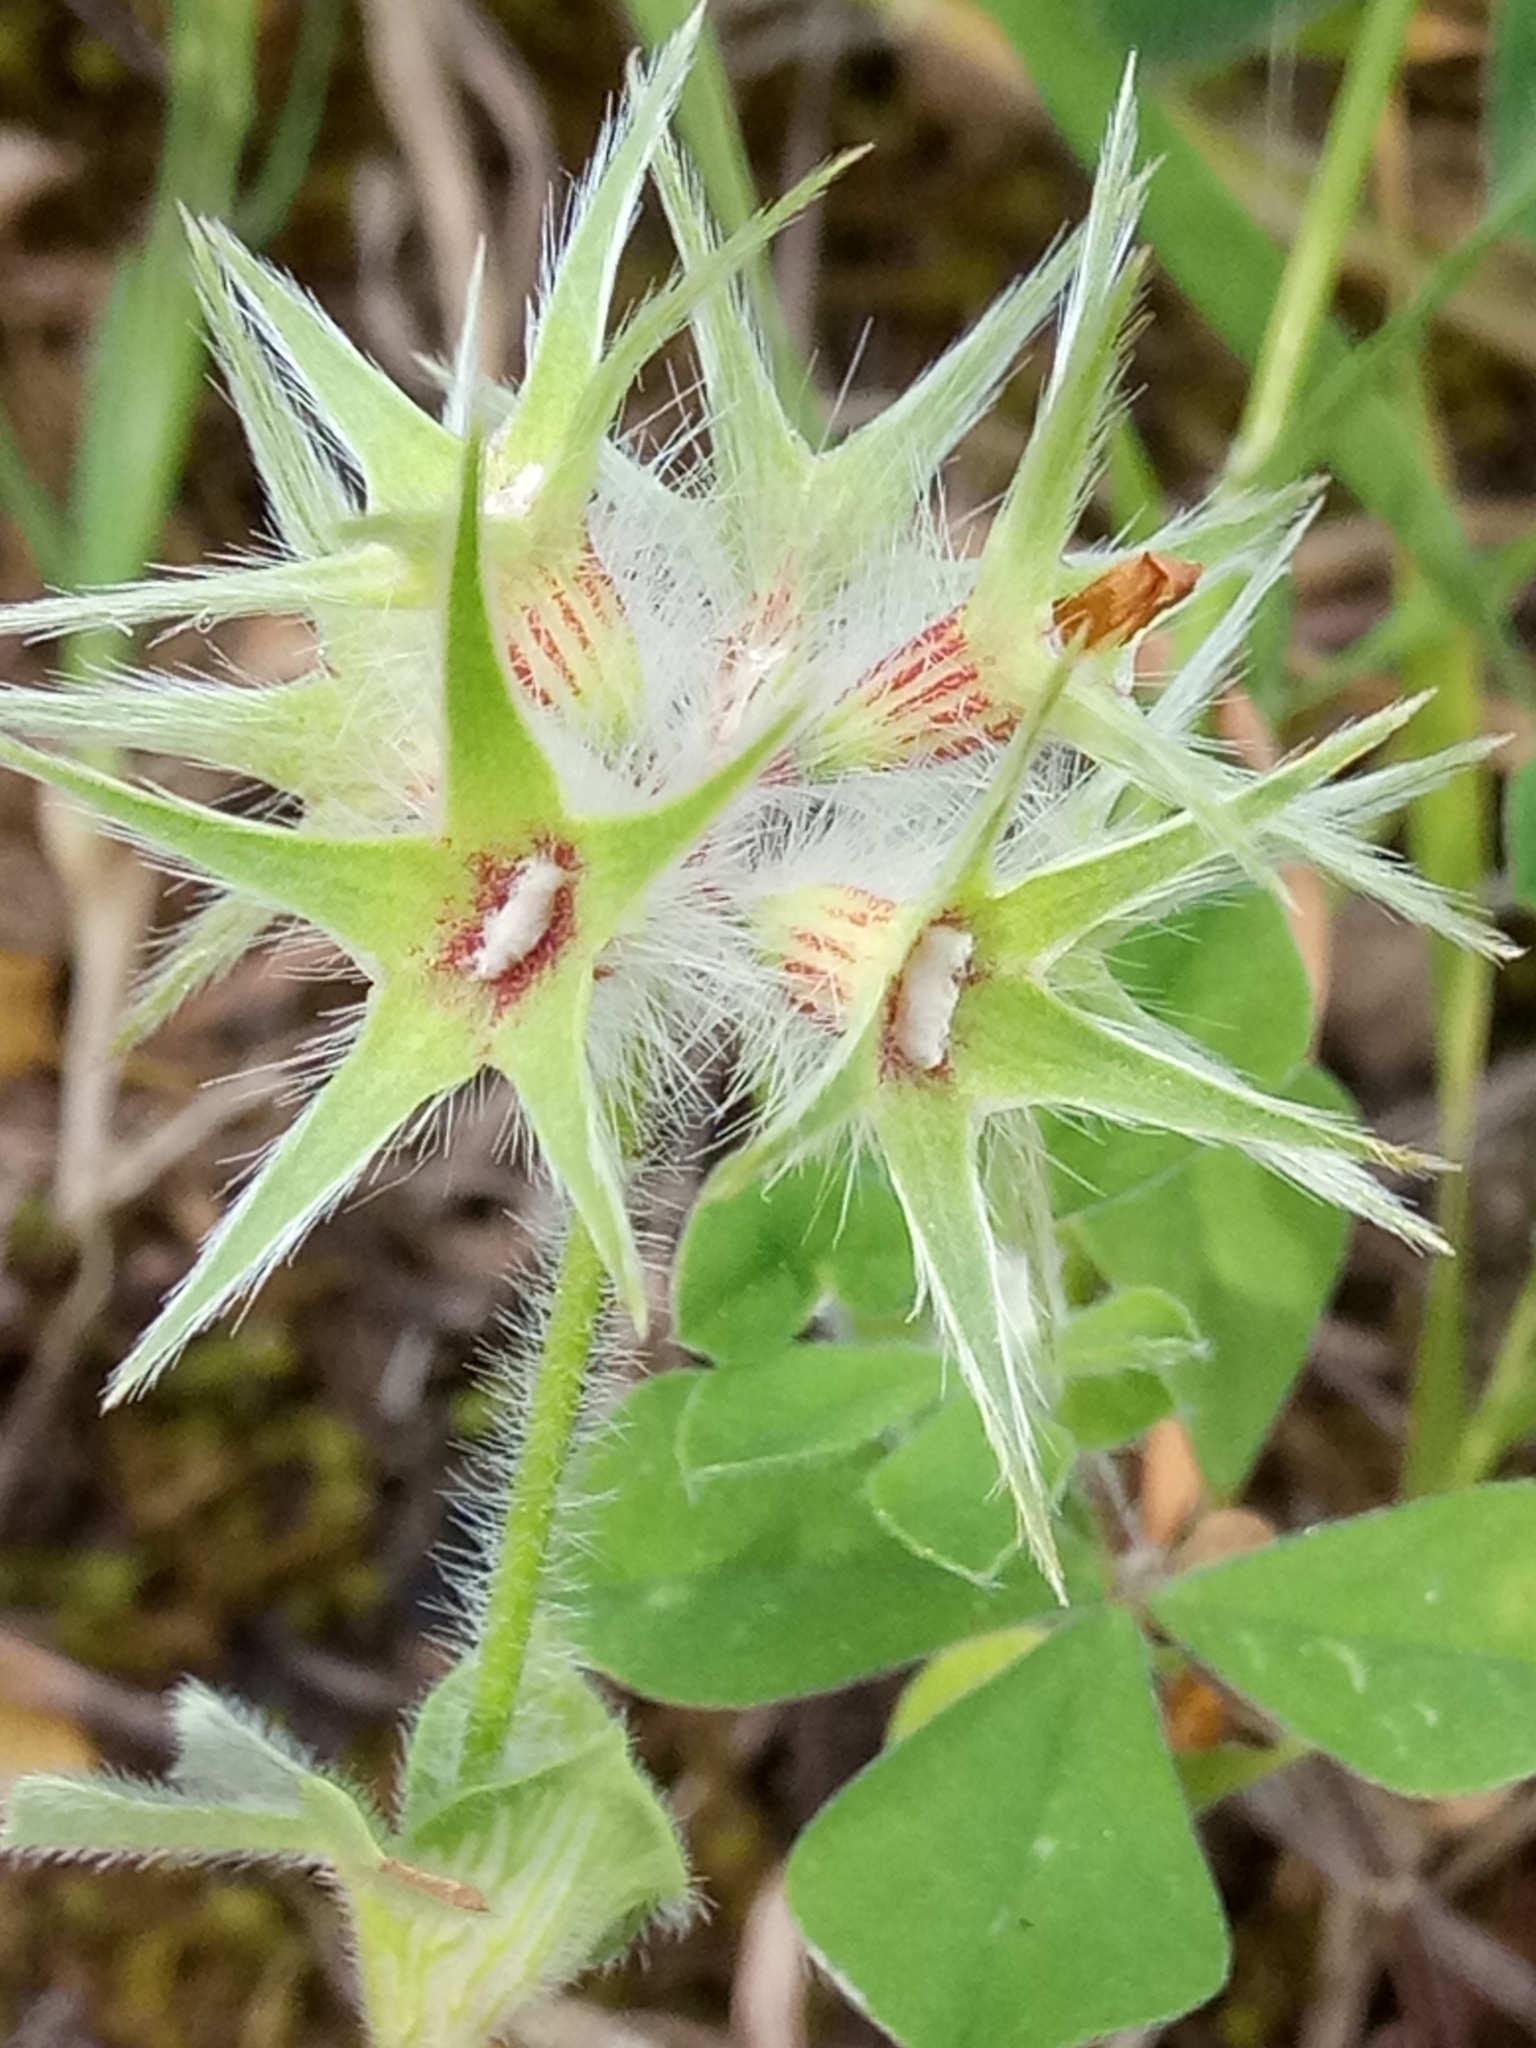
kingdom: Plantae
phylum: Tracheophyta
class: Magnoliopsida
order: Fabales
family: Fabaceae
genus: Trifolium
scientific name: Trifolium stellatum
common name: Starry clover
